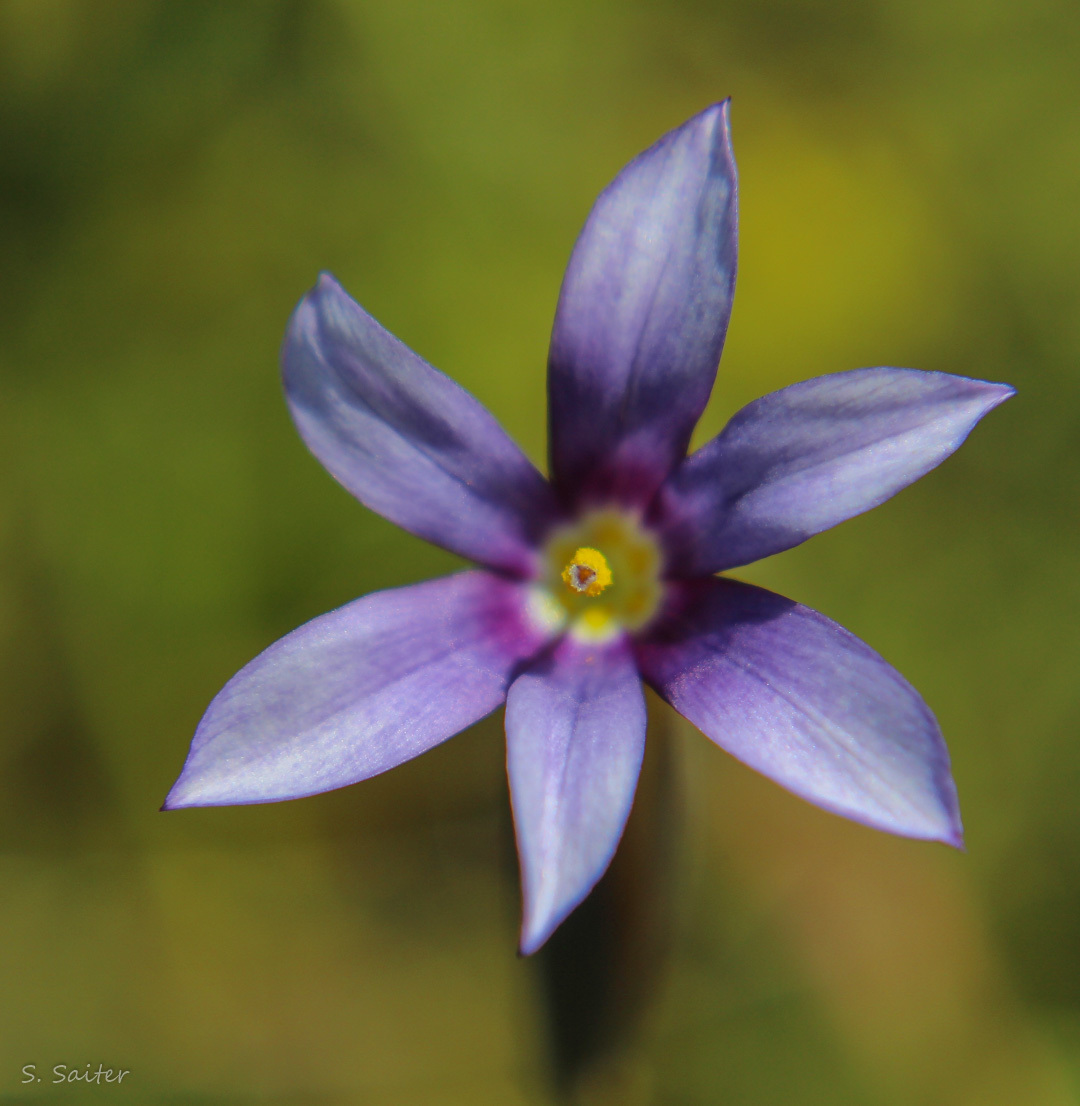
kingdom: Plantae
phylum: Tracheophyta
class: Liliopsida
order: Asparagales
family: Iridaceae
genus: Solenomelus
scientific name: Solenomelus segethi
